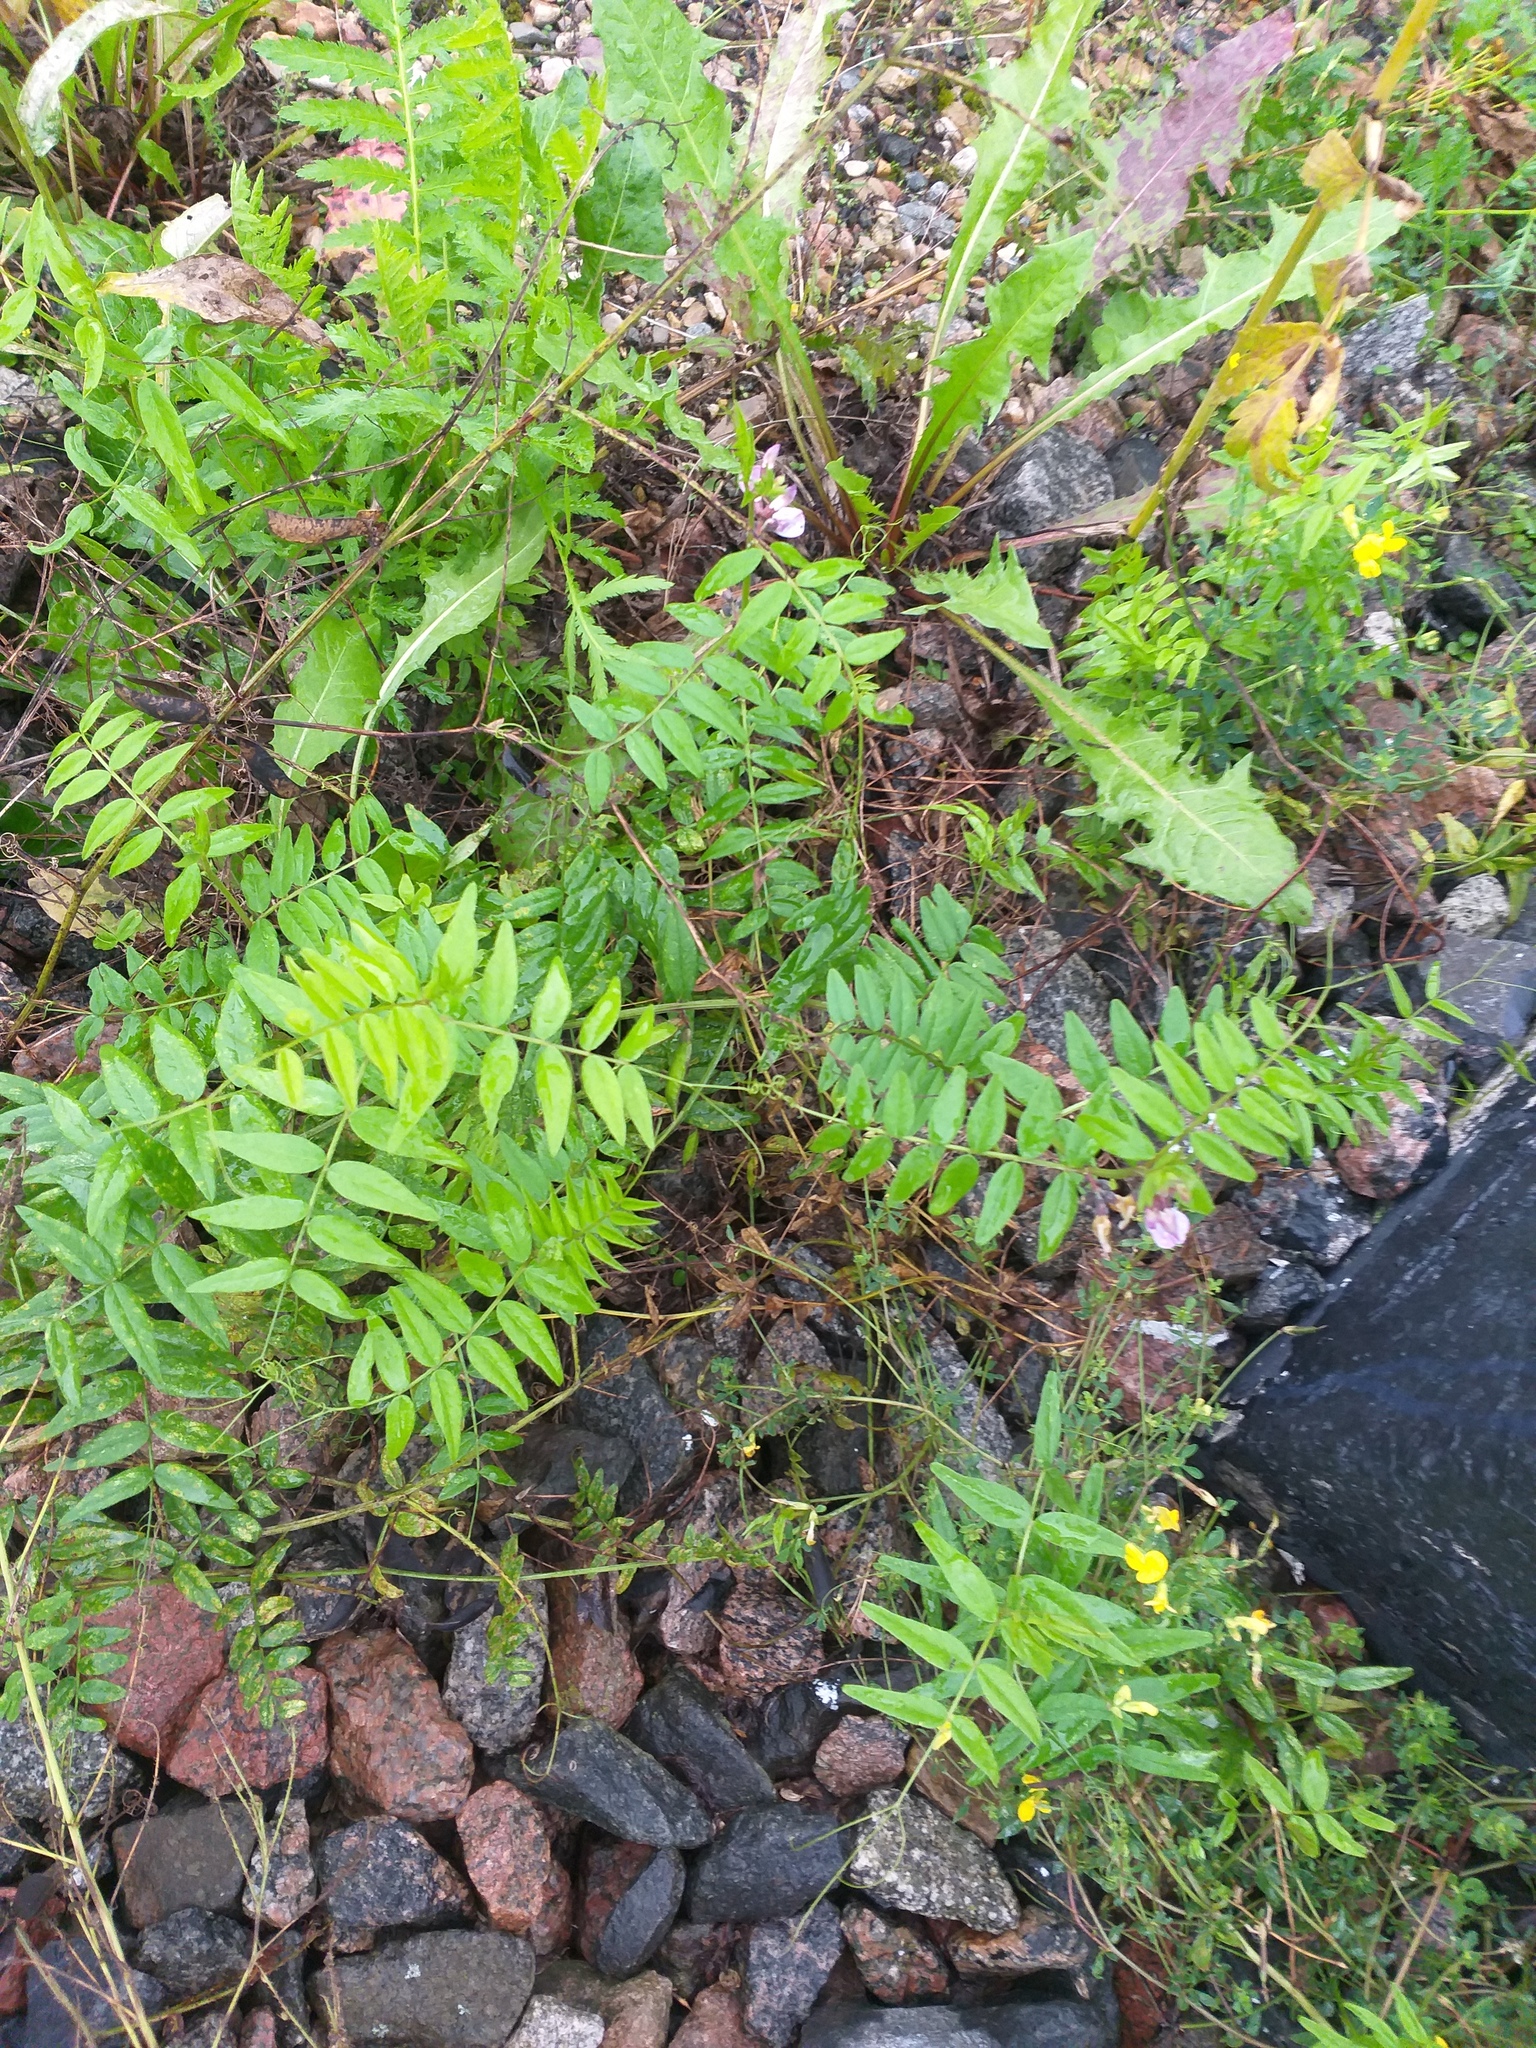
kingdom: Plantae
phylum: Tracheophyta
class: Magnoliopsida
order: Fabales
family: Fabaceae
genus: Vicia
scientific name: Vicia sepium
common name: Bush vetch
